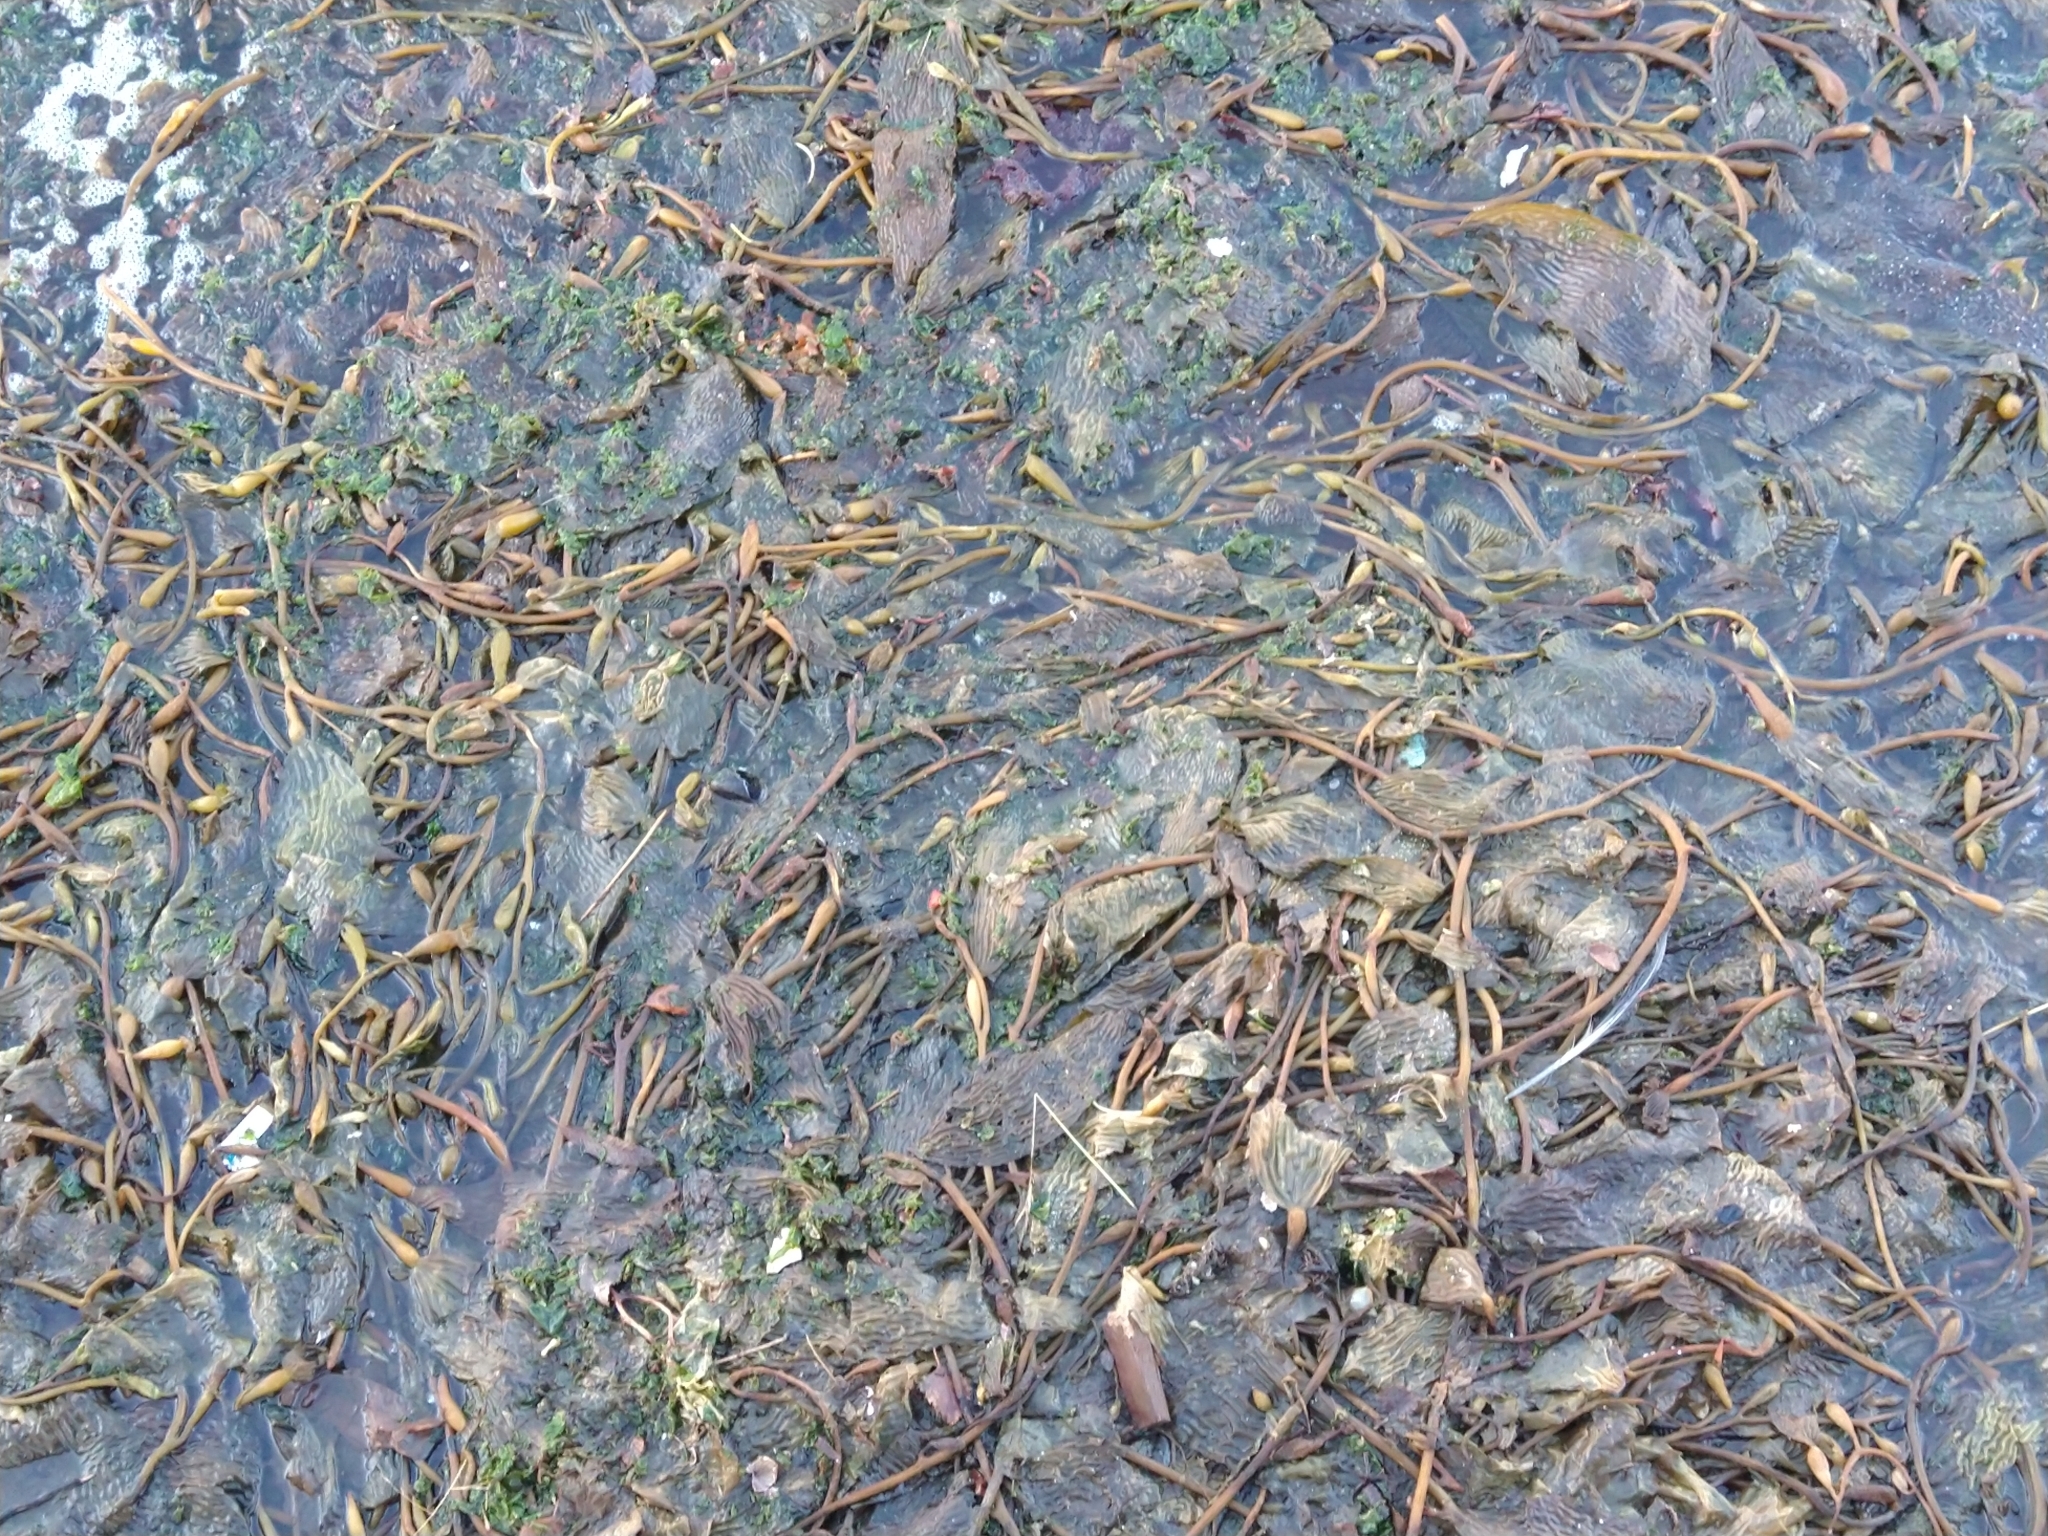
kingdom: Chromista
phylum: Ochrophyta
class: Phaeophyceae
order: Laminariales
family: Laminariaceae
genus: Macrocystis
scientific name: Macrocystis pyrifera
